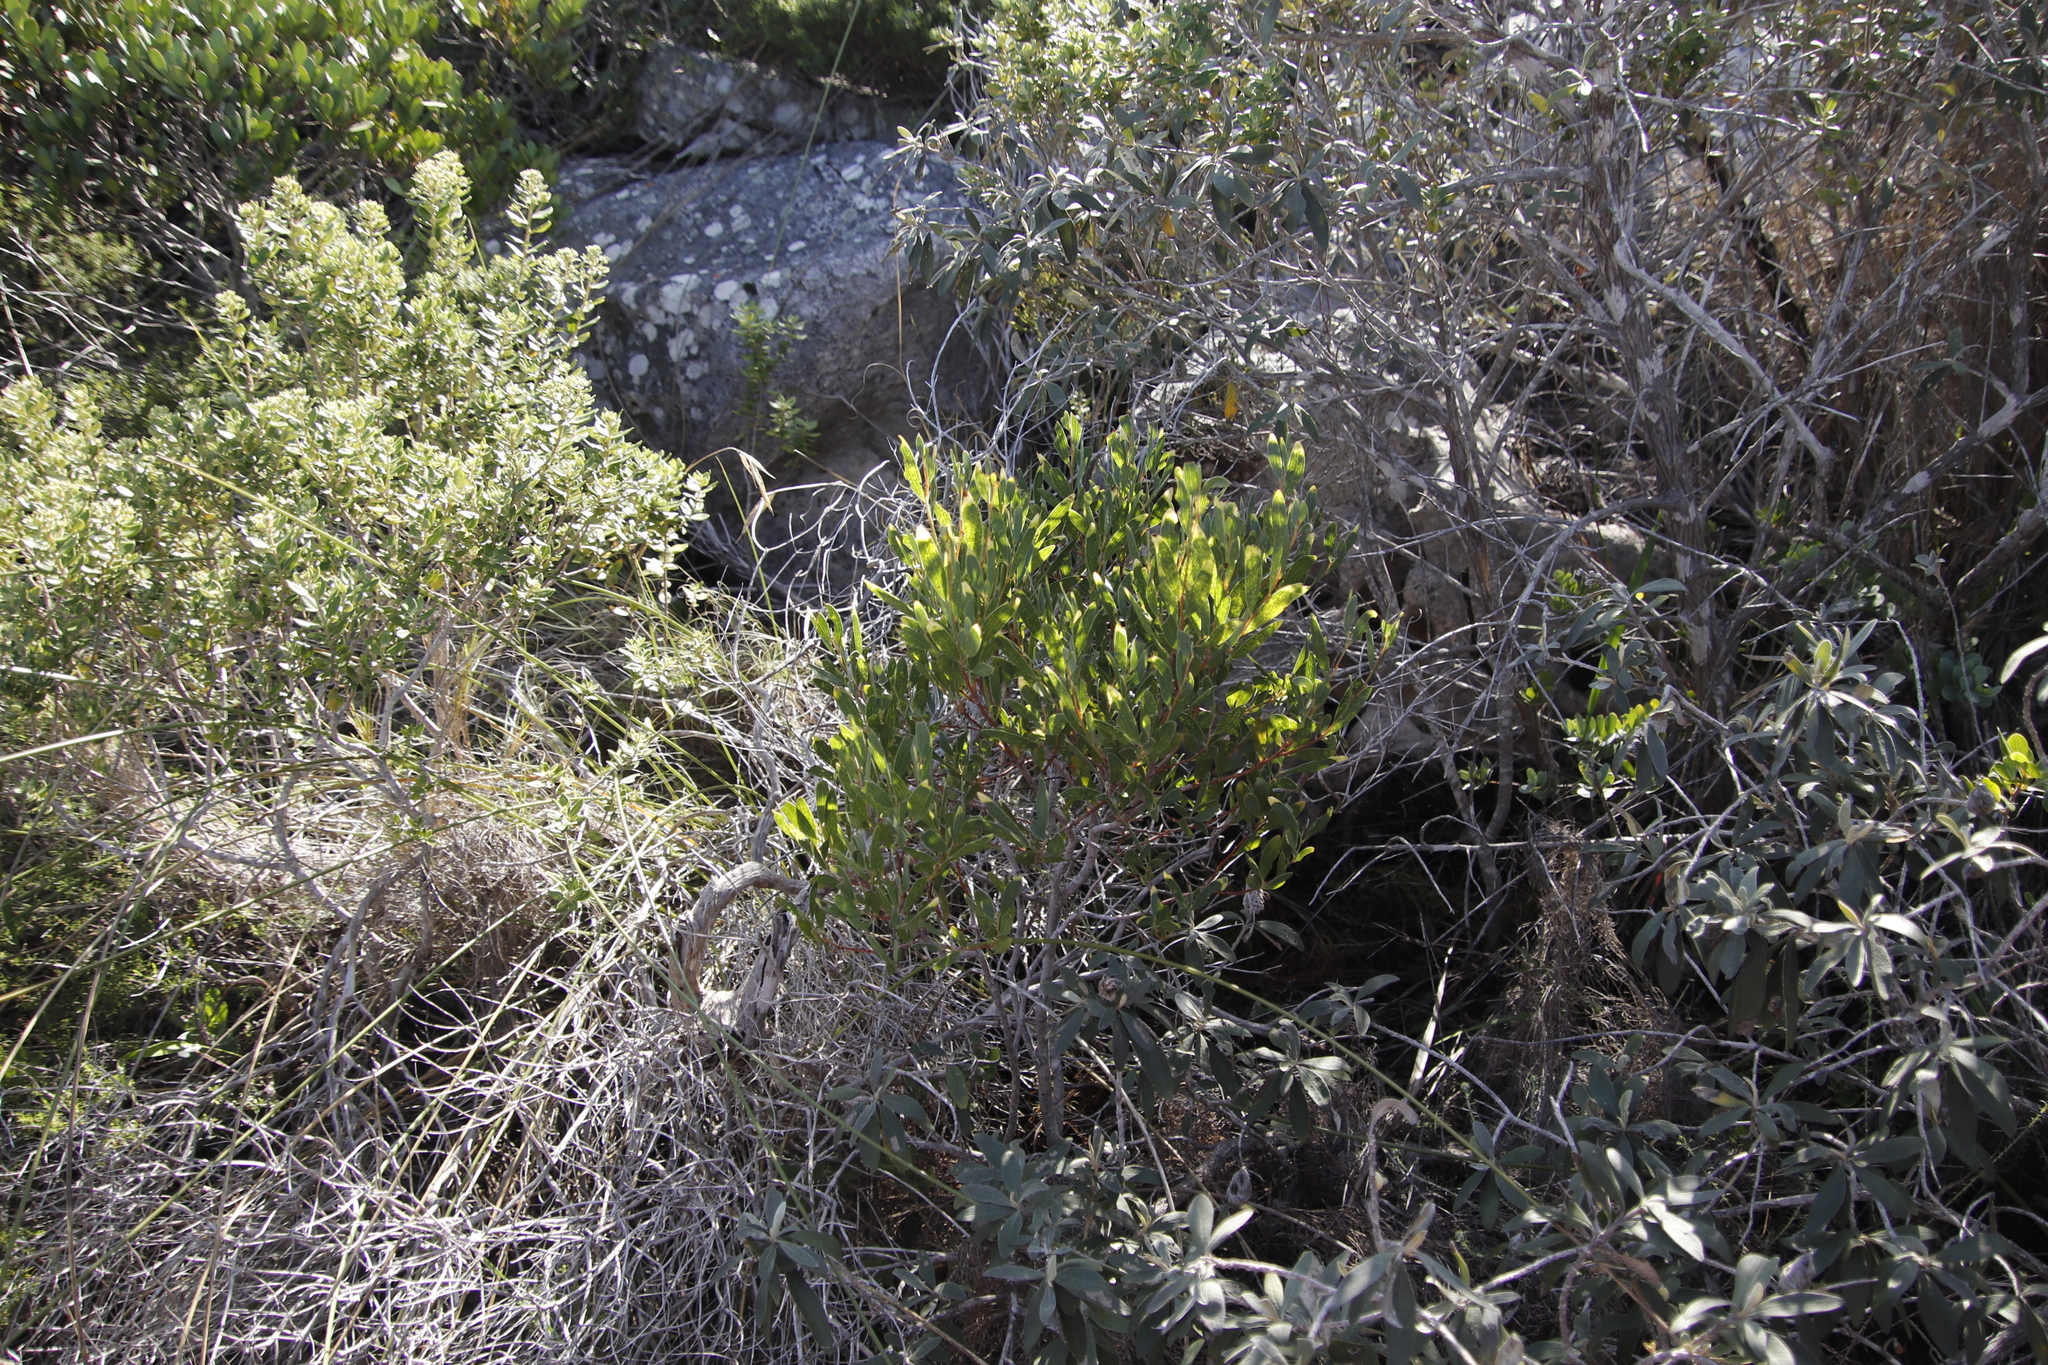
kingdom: Plantae
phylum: Tracheophyta
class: Magnoliopsida
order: Fabales
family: Fabaceae
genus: Acacia
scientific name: Acacia cyclops
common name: Coastal wattle
